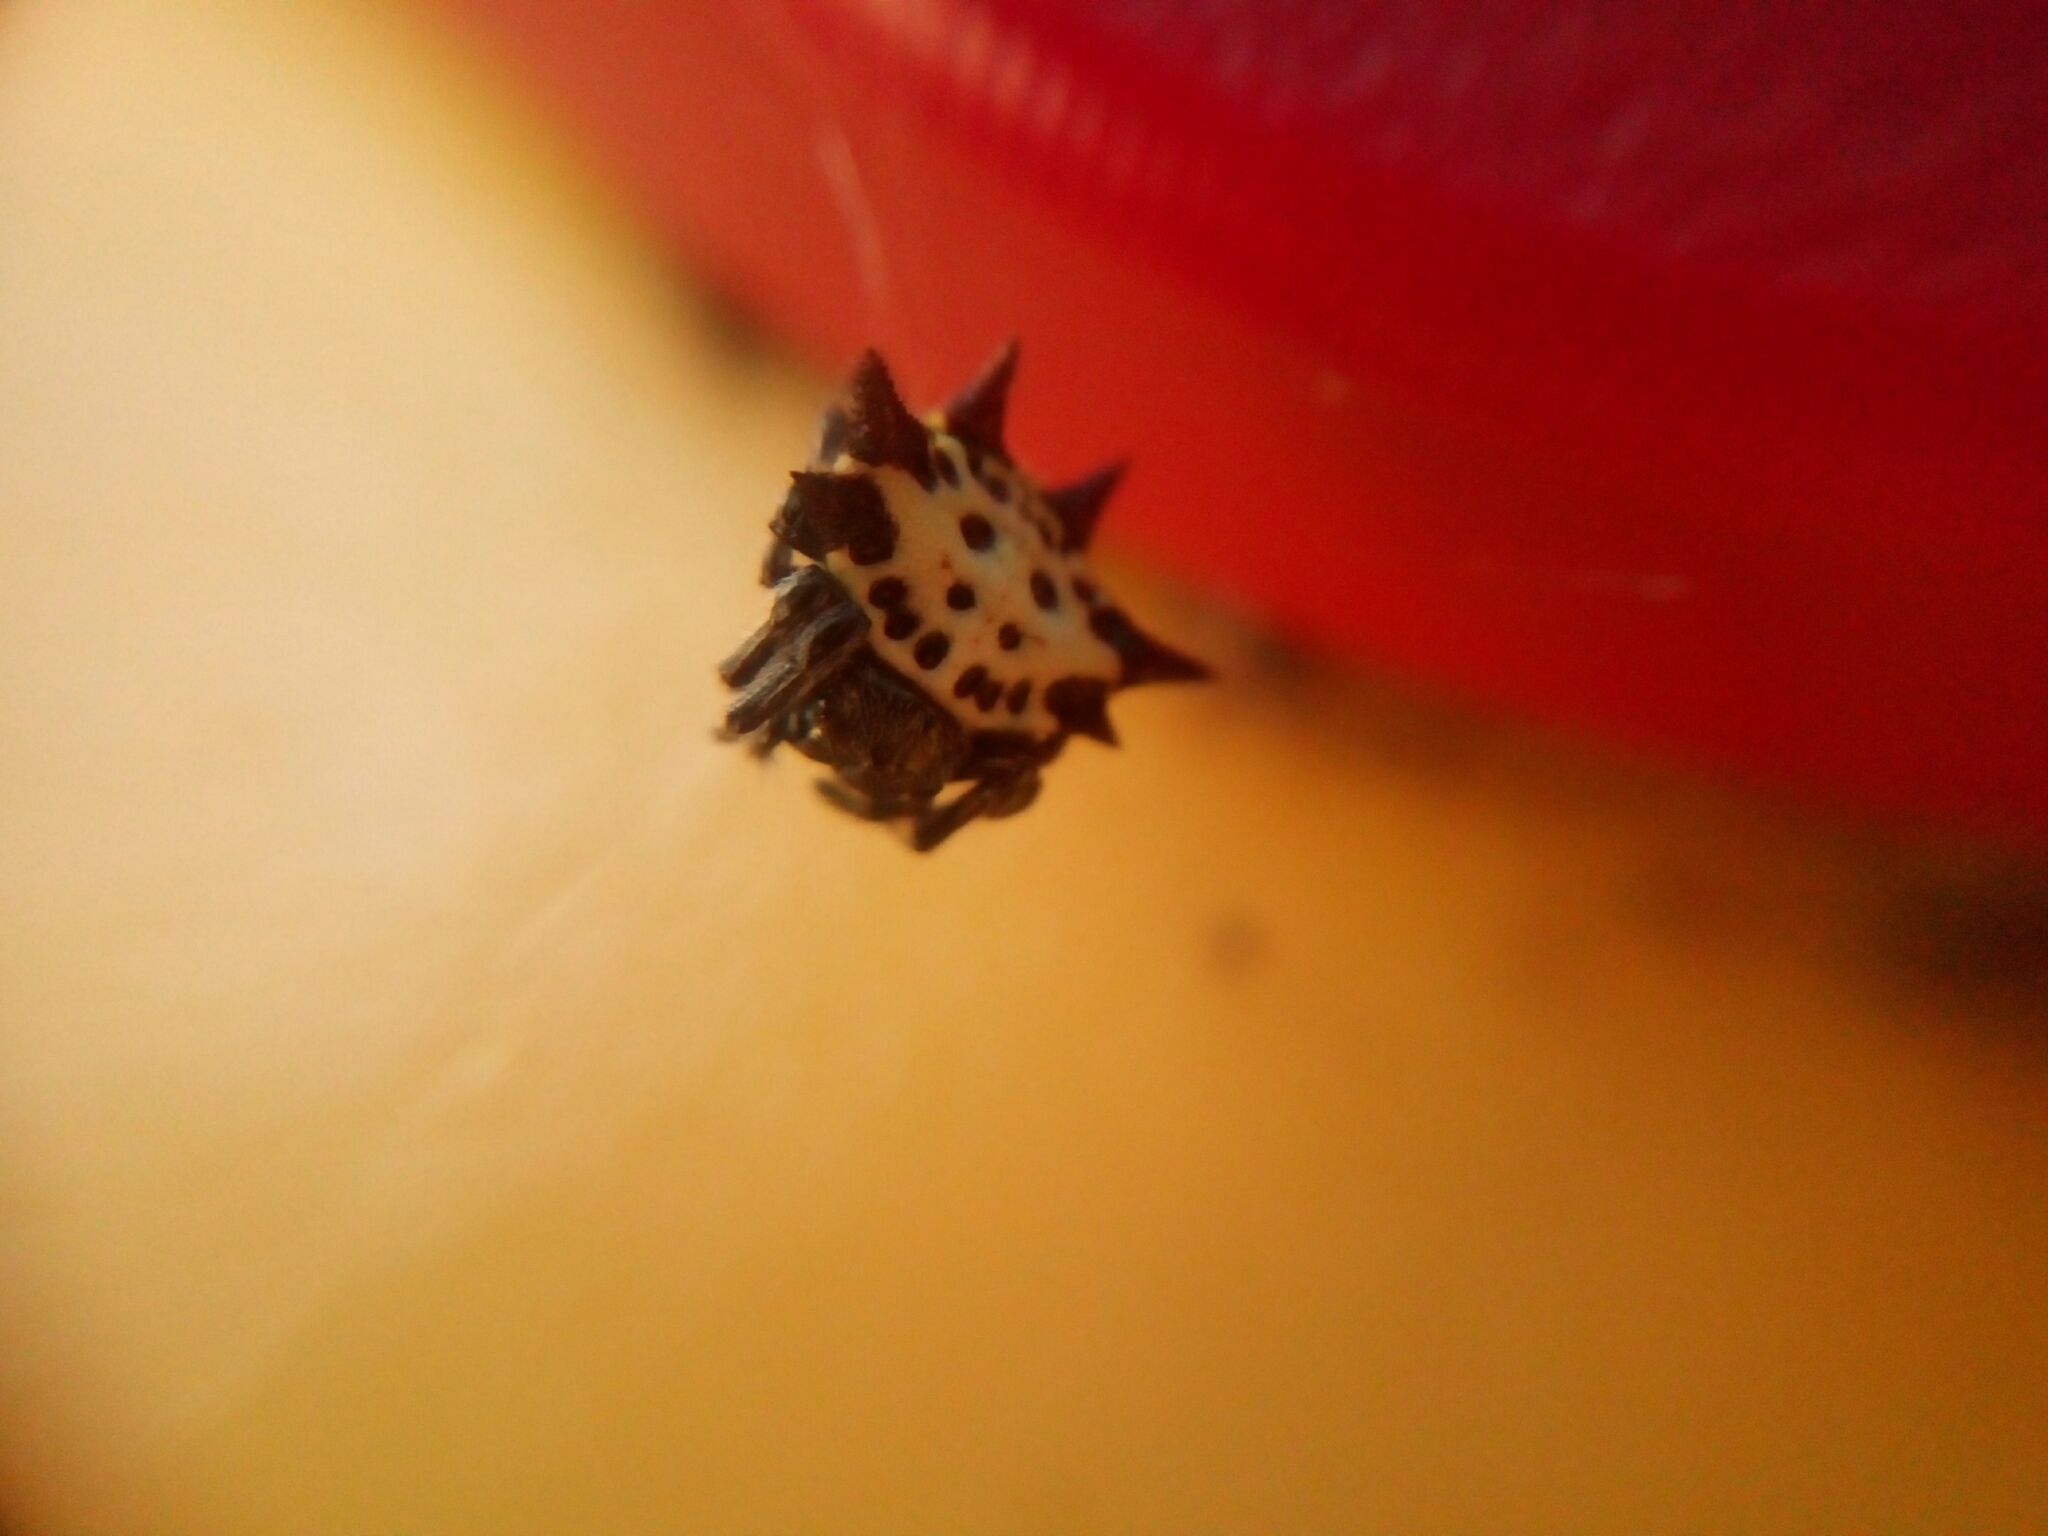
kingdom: Animalia
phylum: Arthropoda
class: Arachnida
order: Araneae
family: Araneidae
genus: Gasteracantha
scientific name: Gasteracantha cancriformis
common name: Orb weavers
